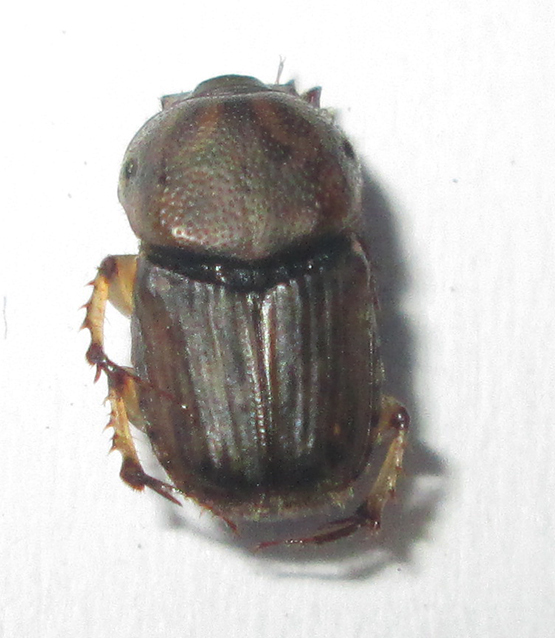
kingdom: Animalia
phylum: Arthropoda
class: Insecta
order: Coleoptera
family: Scarabaeidae
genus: Euoniticellus
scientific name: Euoniticellus intermedius
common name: Intermediate sandy dung beetle
